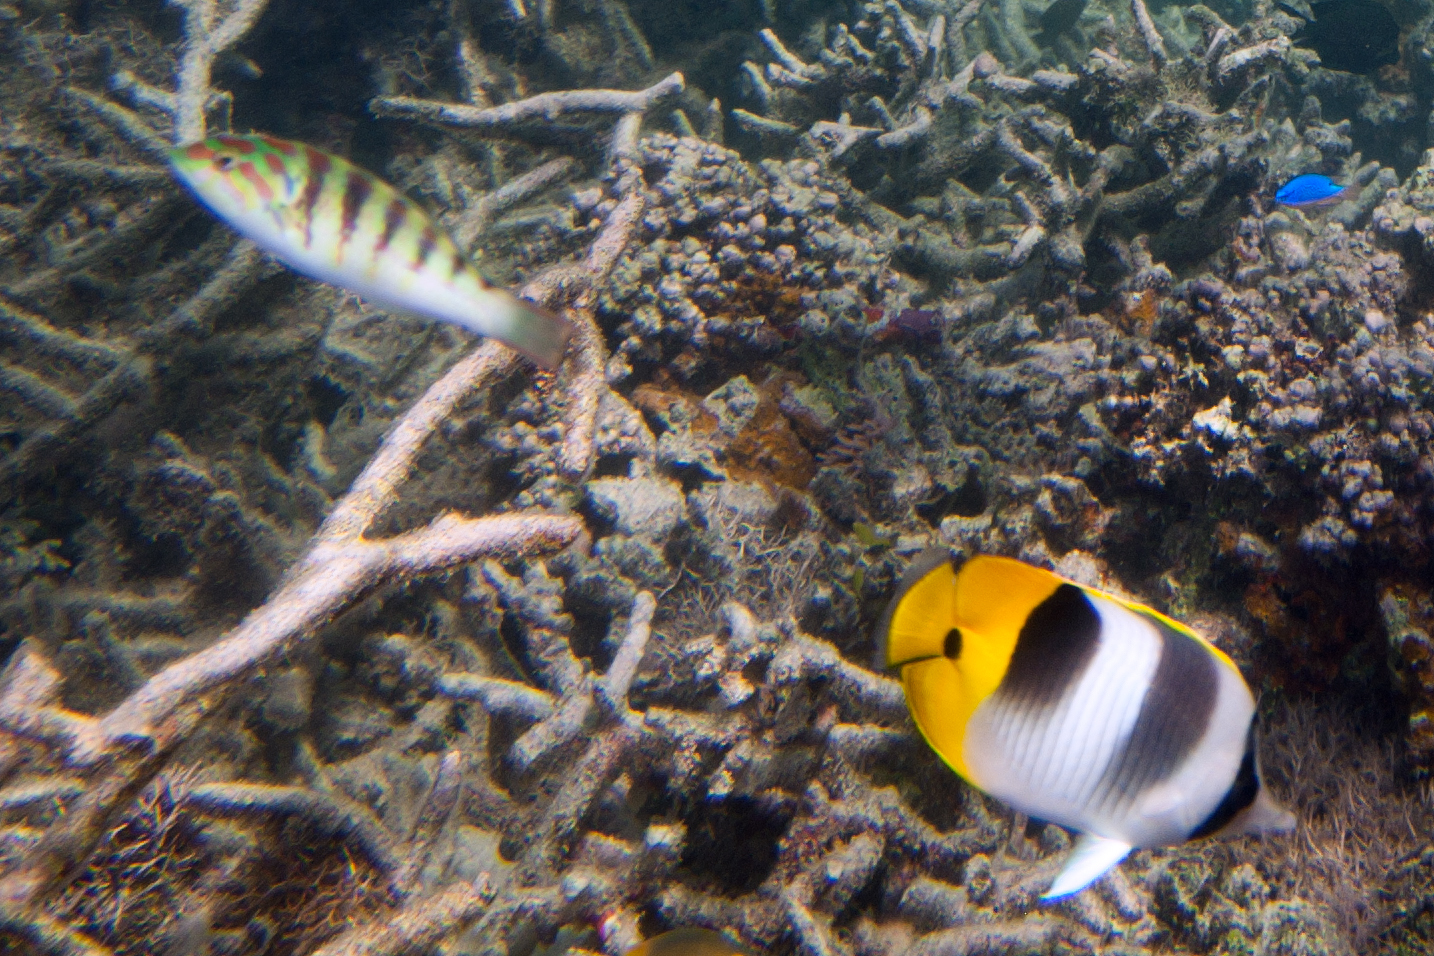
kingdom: Animalia
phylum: Chordata
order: Perciformes
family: Labridae
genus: Thalassoma
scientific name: Thalassoma hardwicke
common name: Sixbar wrasse
